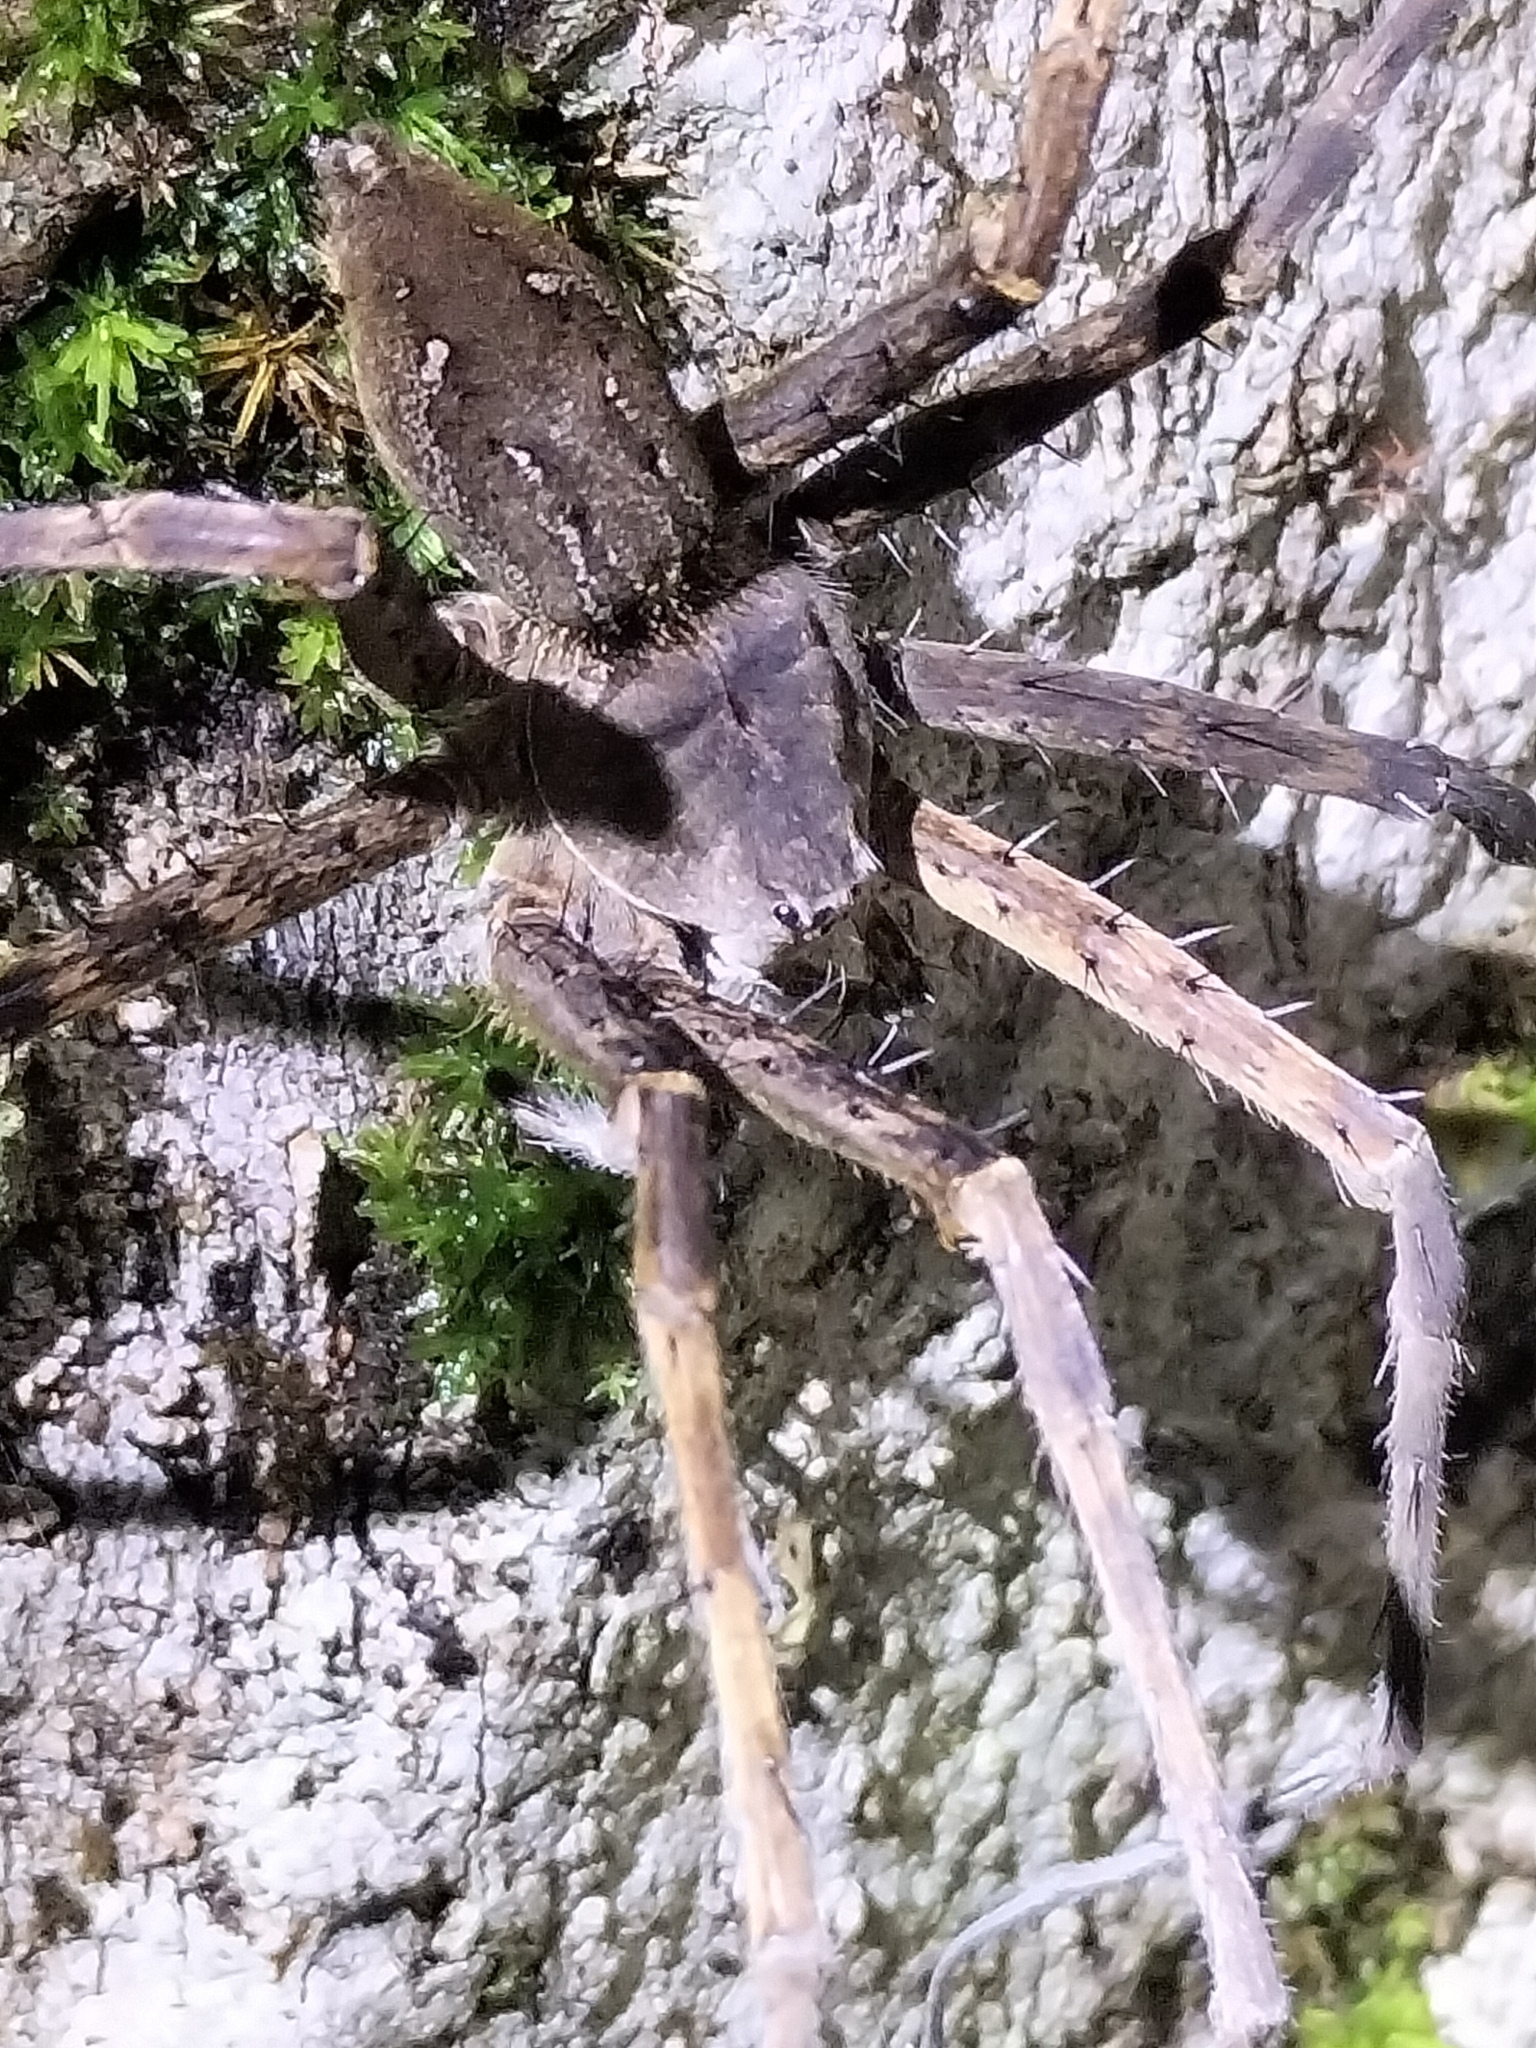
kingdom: Animalia
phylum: Arthropoda
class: Arachnida
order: Araneae
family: Pisauridae
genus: Megadolomedes
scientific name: Megadolomedes trux
